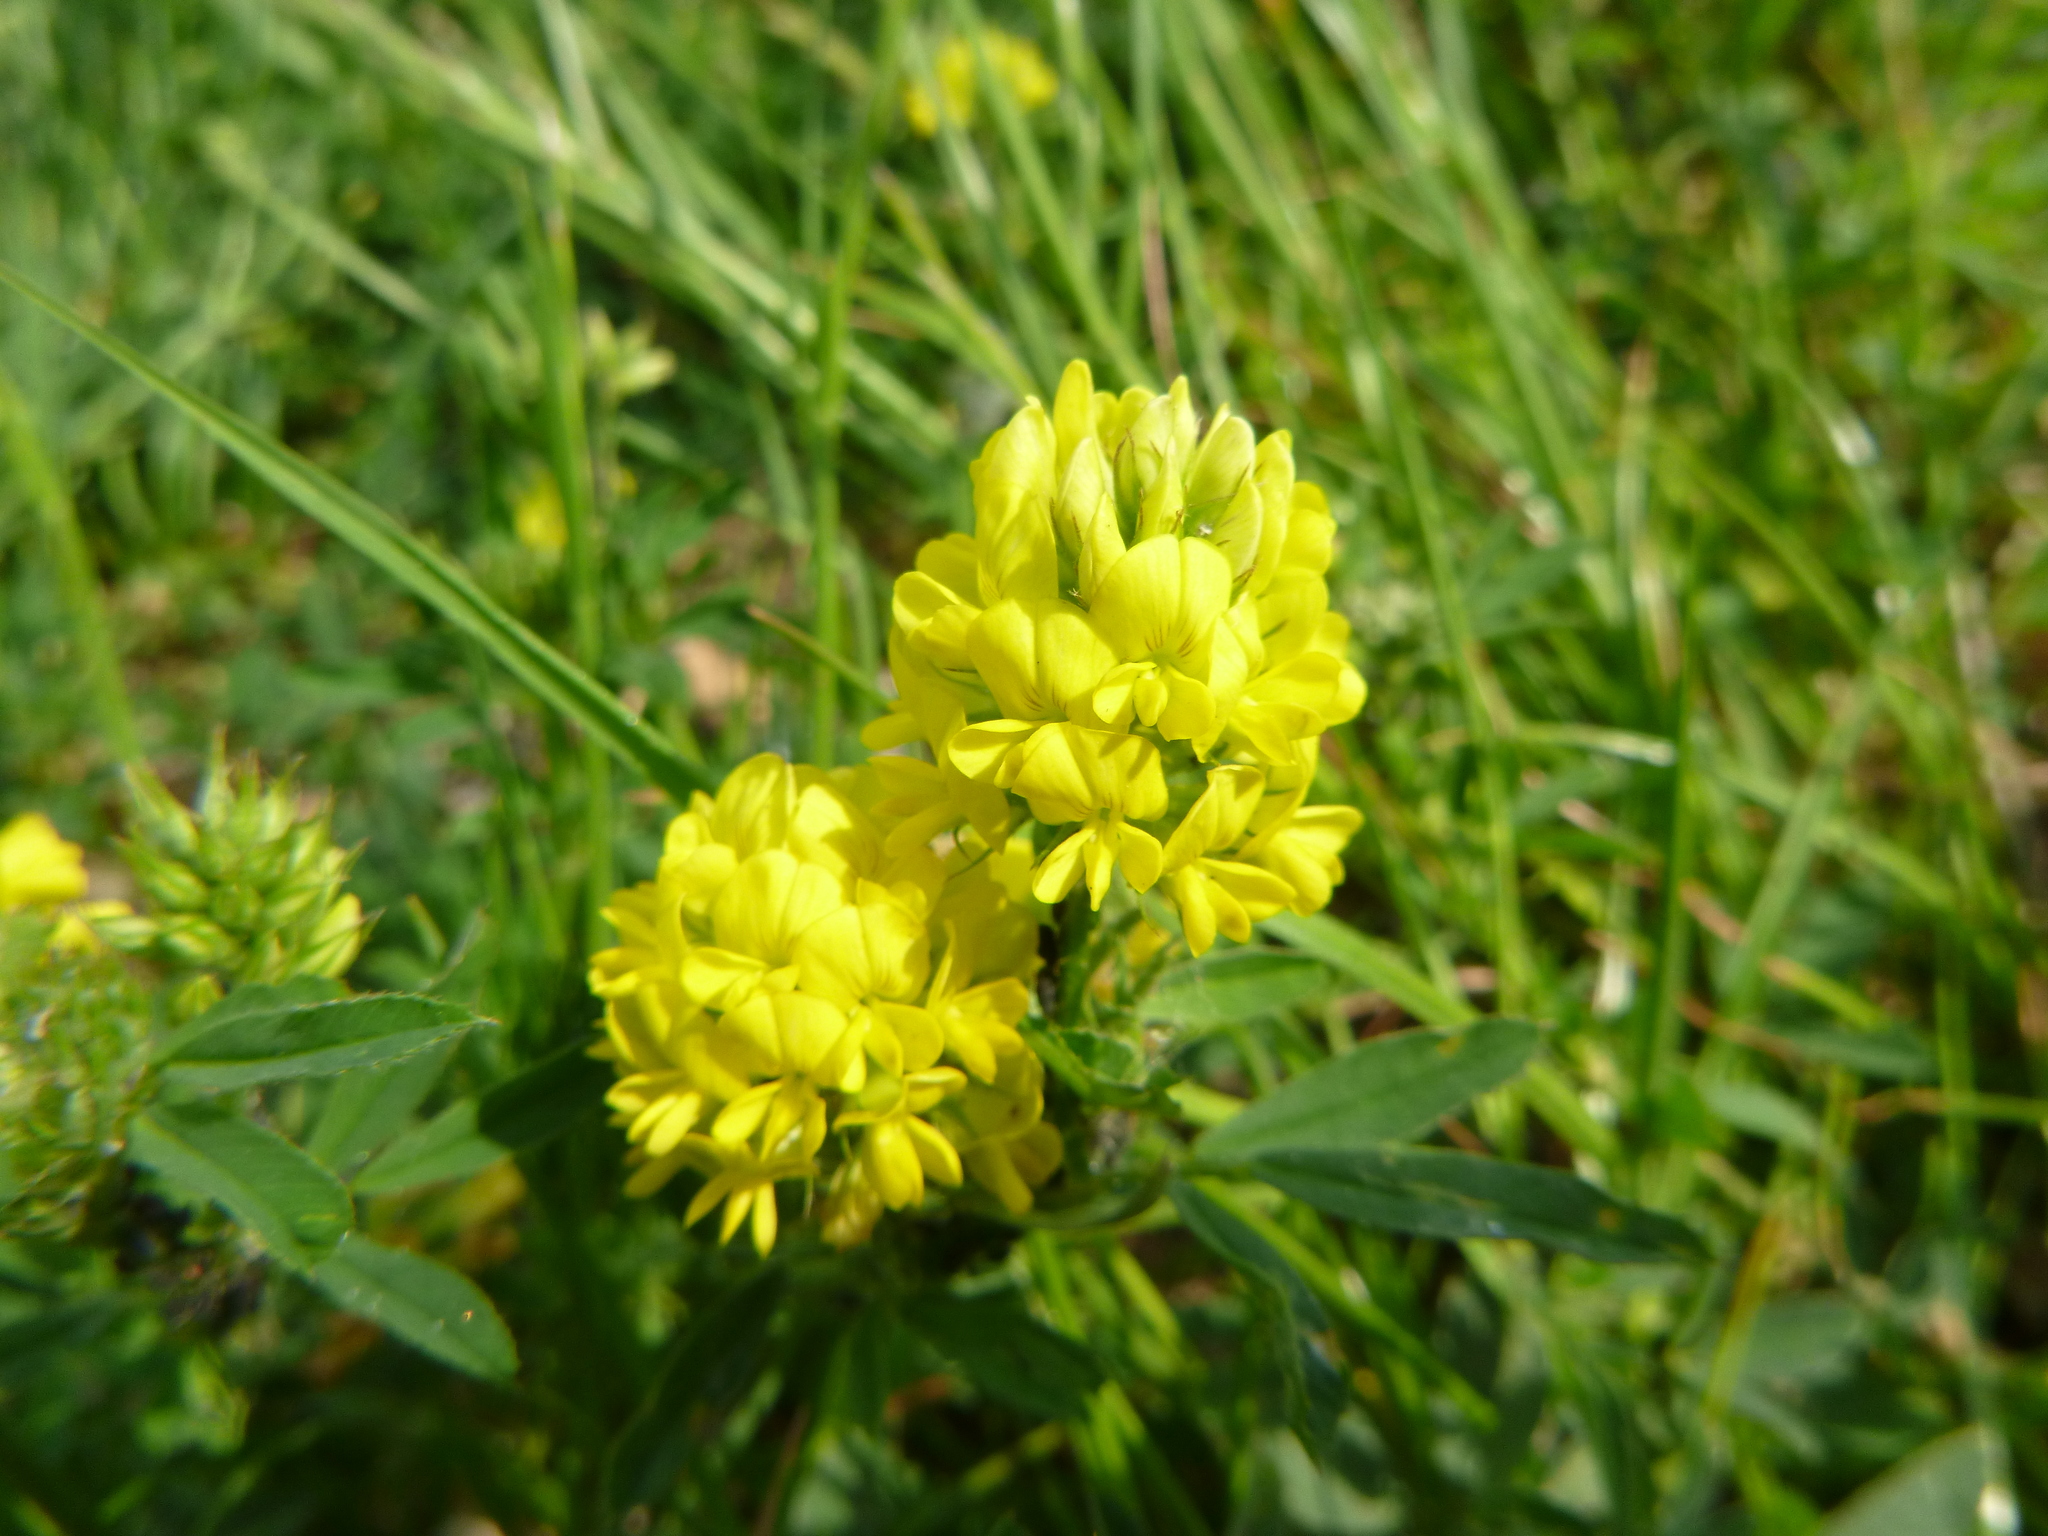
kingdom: Plantae
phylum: Tracheophyta
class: Magnoliopsida
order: Fabales
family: Fabaceae
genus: Medicago
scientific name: Medicago falcata
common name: Sickle medick
